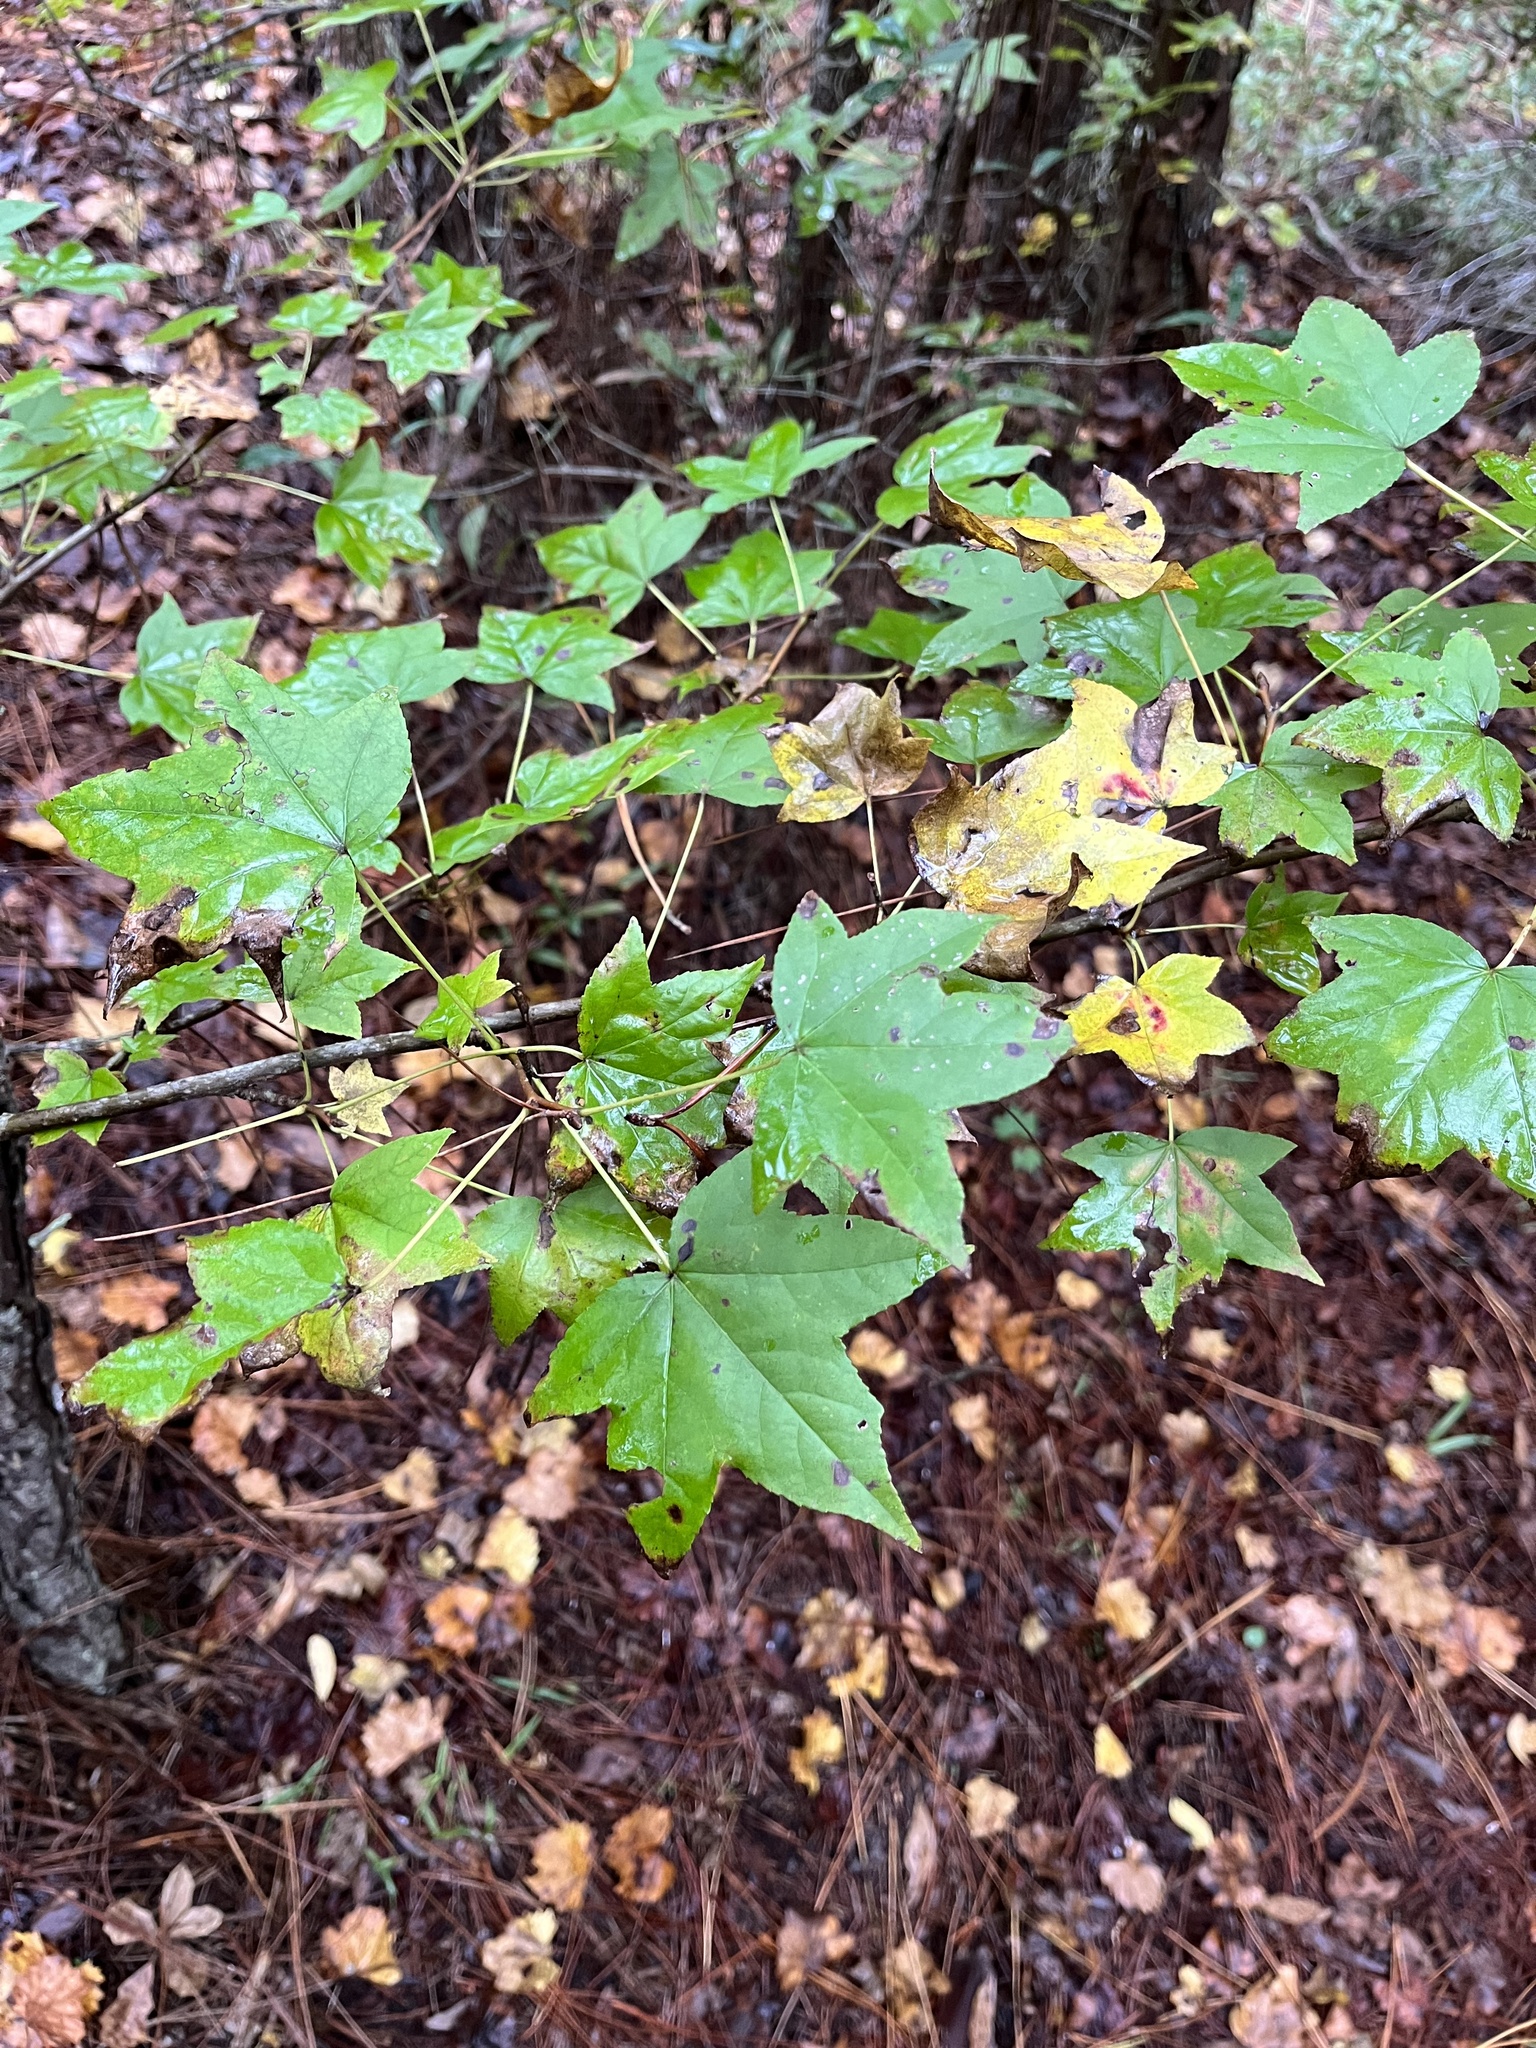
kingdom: Plantae
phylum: Tracheophyta
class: Magnoliopsida
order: Saxifragales
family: Altingiaceae
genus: Liquidambar
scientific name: Liquidambar styraciflua
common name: Sweet gum
